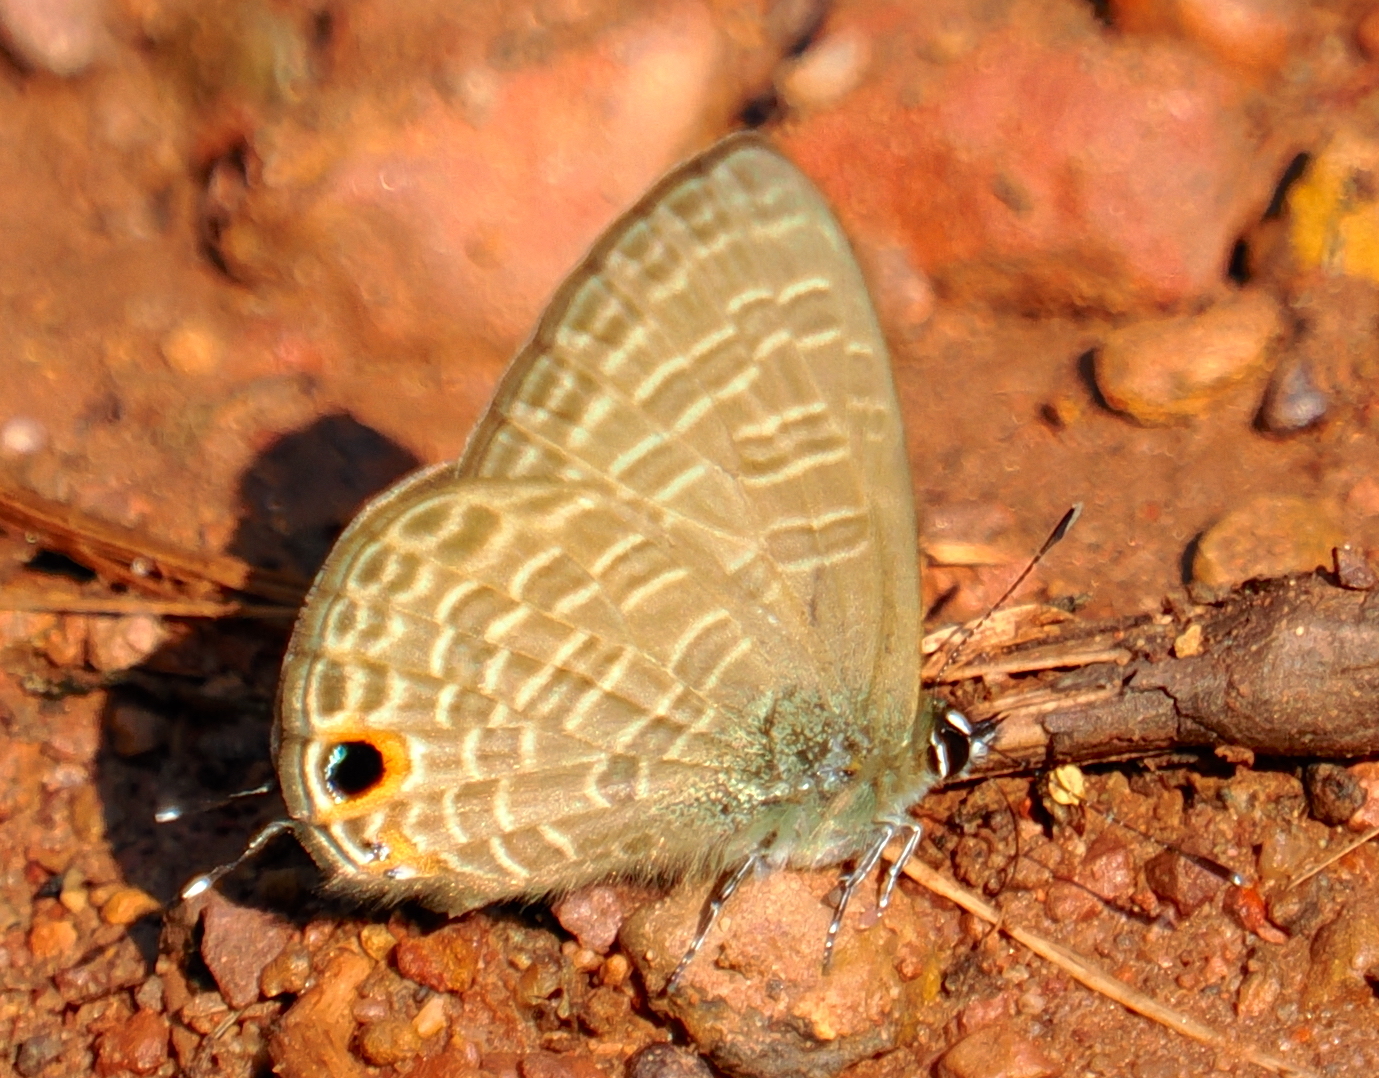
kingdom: Animalia
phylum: Arthropoda
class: Insecta
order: Lepidoptera
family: Lycaenidae
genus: Nacaduba
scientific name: Nacaduba beroe
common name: Opaque sixline blue
